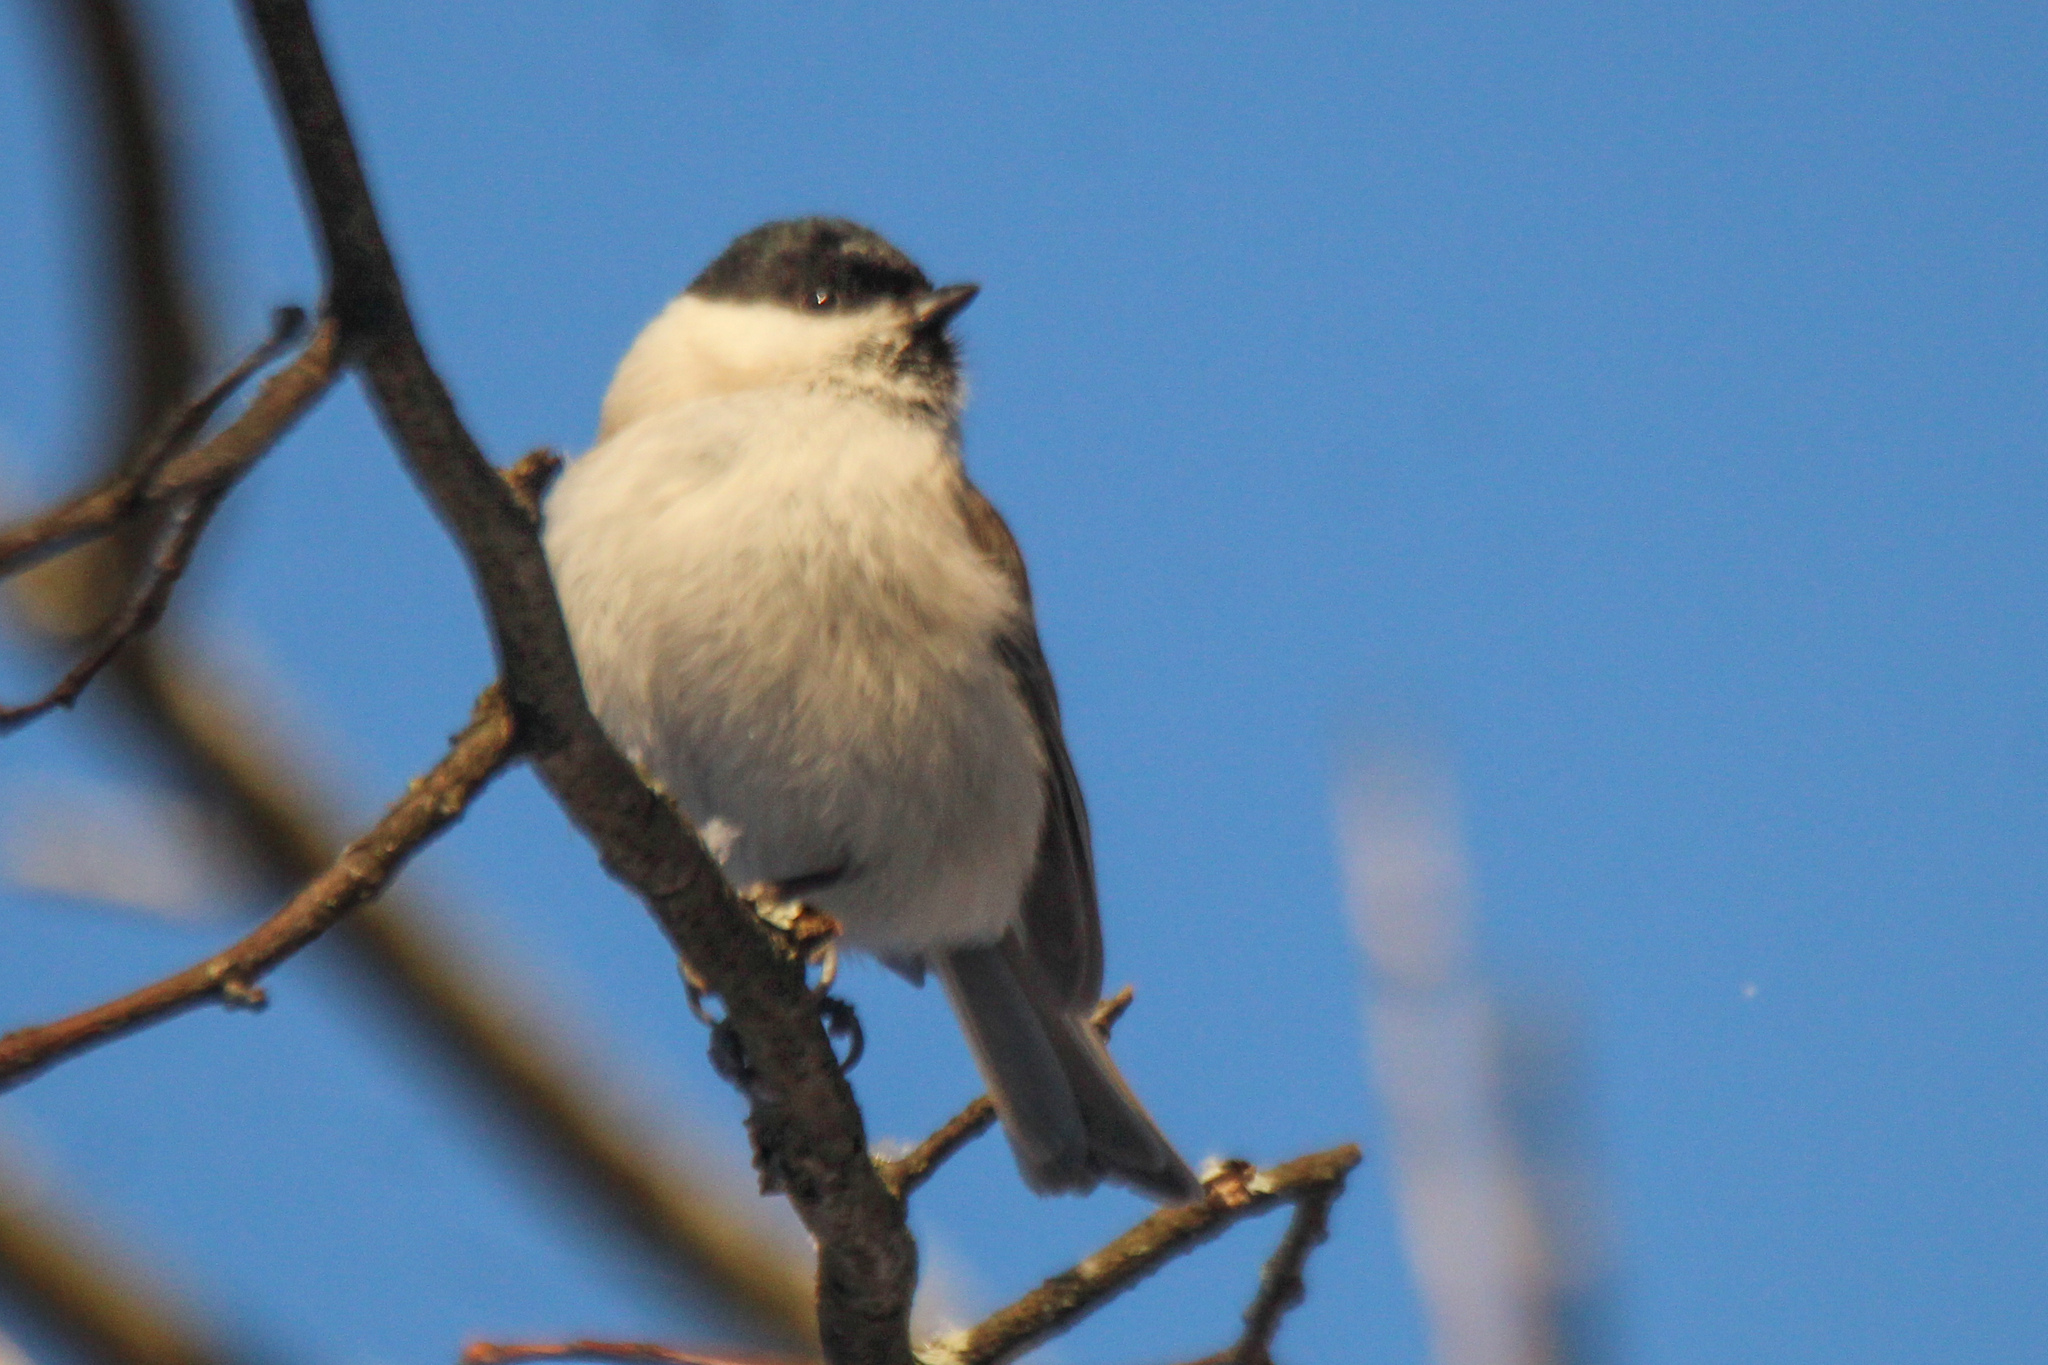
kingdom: Animalia
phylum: Chordata
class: Aves
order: Passeriformes
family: Paridae
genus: Poecile
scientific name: Poecile palustris
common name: Marsh tit
